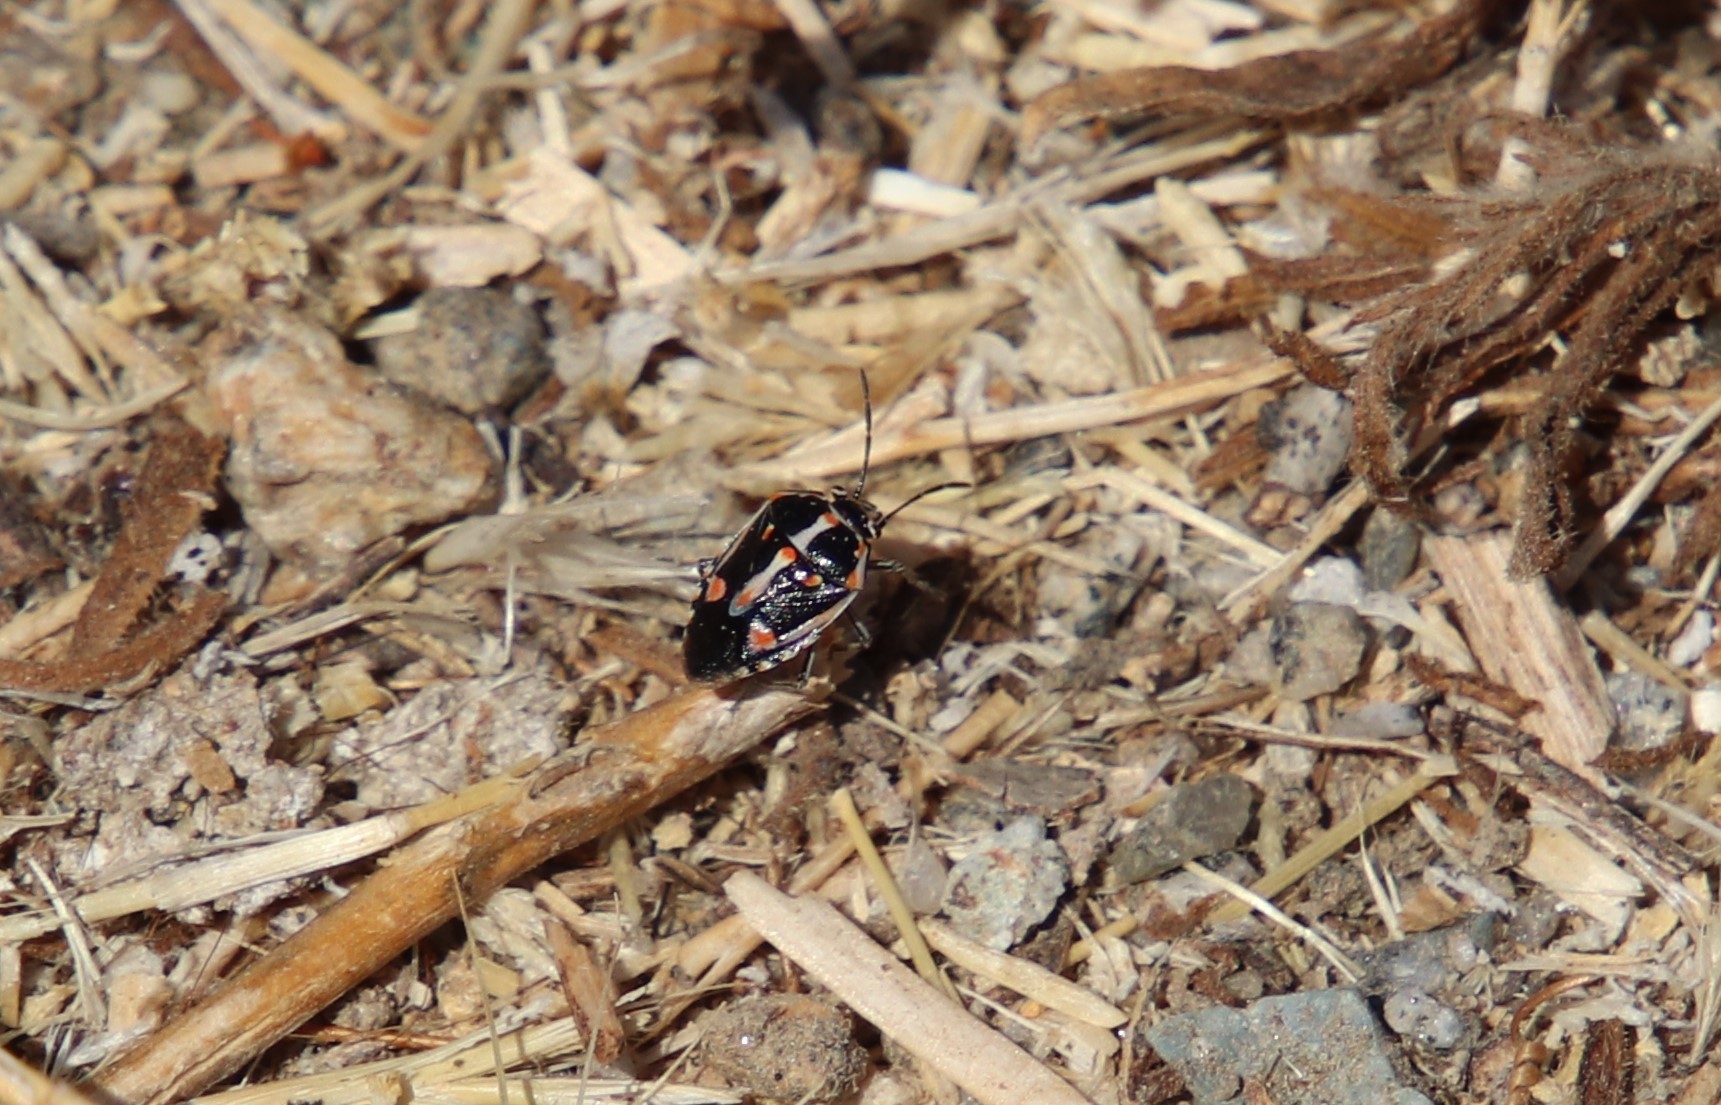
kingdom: Animalia
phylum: Arthropoda
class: Insecta
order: Hemiptera
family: Pentatomidae
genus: Bagrada
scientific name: Bagrada hilaris
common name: Bagrada bug
